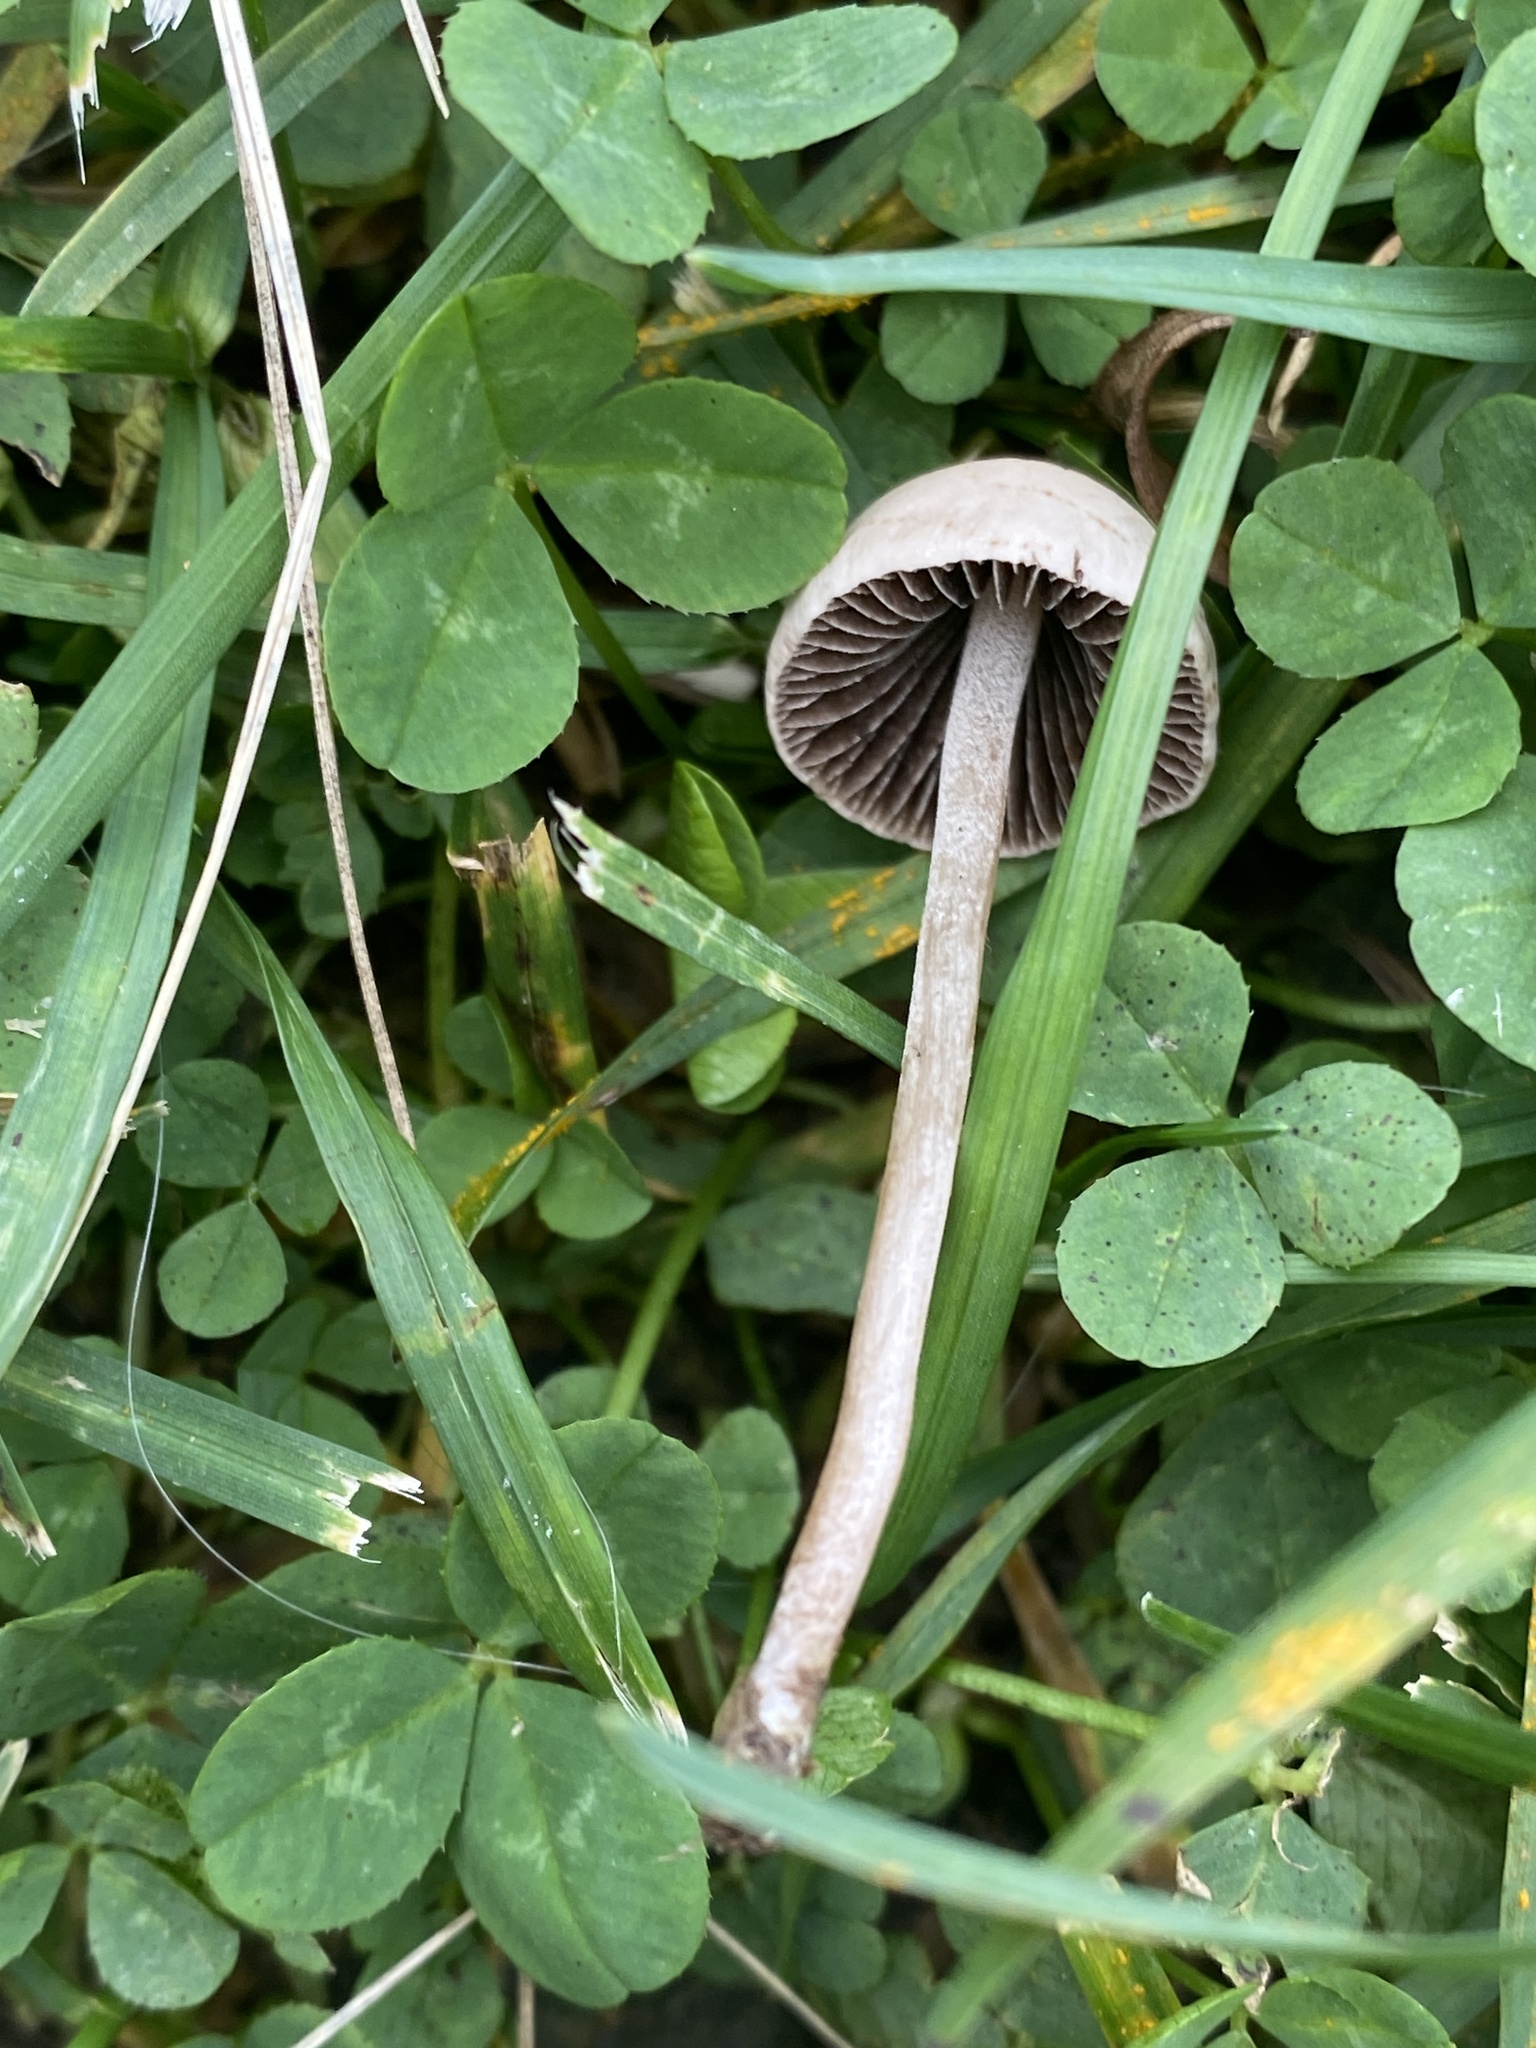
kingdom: Fungi
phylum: Basidiomycota
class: Agaricomycetes
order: Agaricales
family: Bolbitiaceae
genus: Panaeolina
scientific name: Panaeolina foenisecii
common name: Brown hay cap
